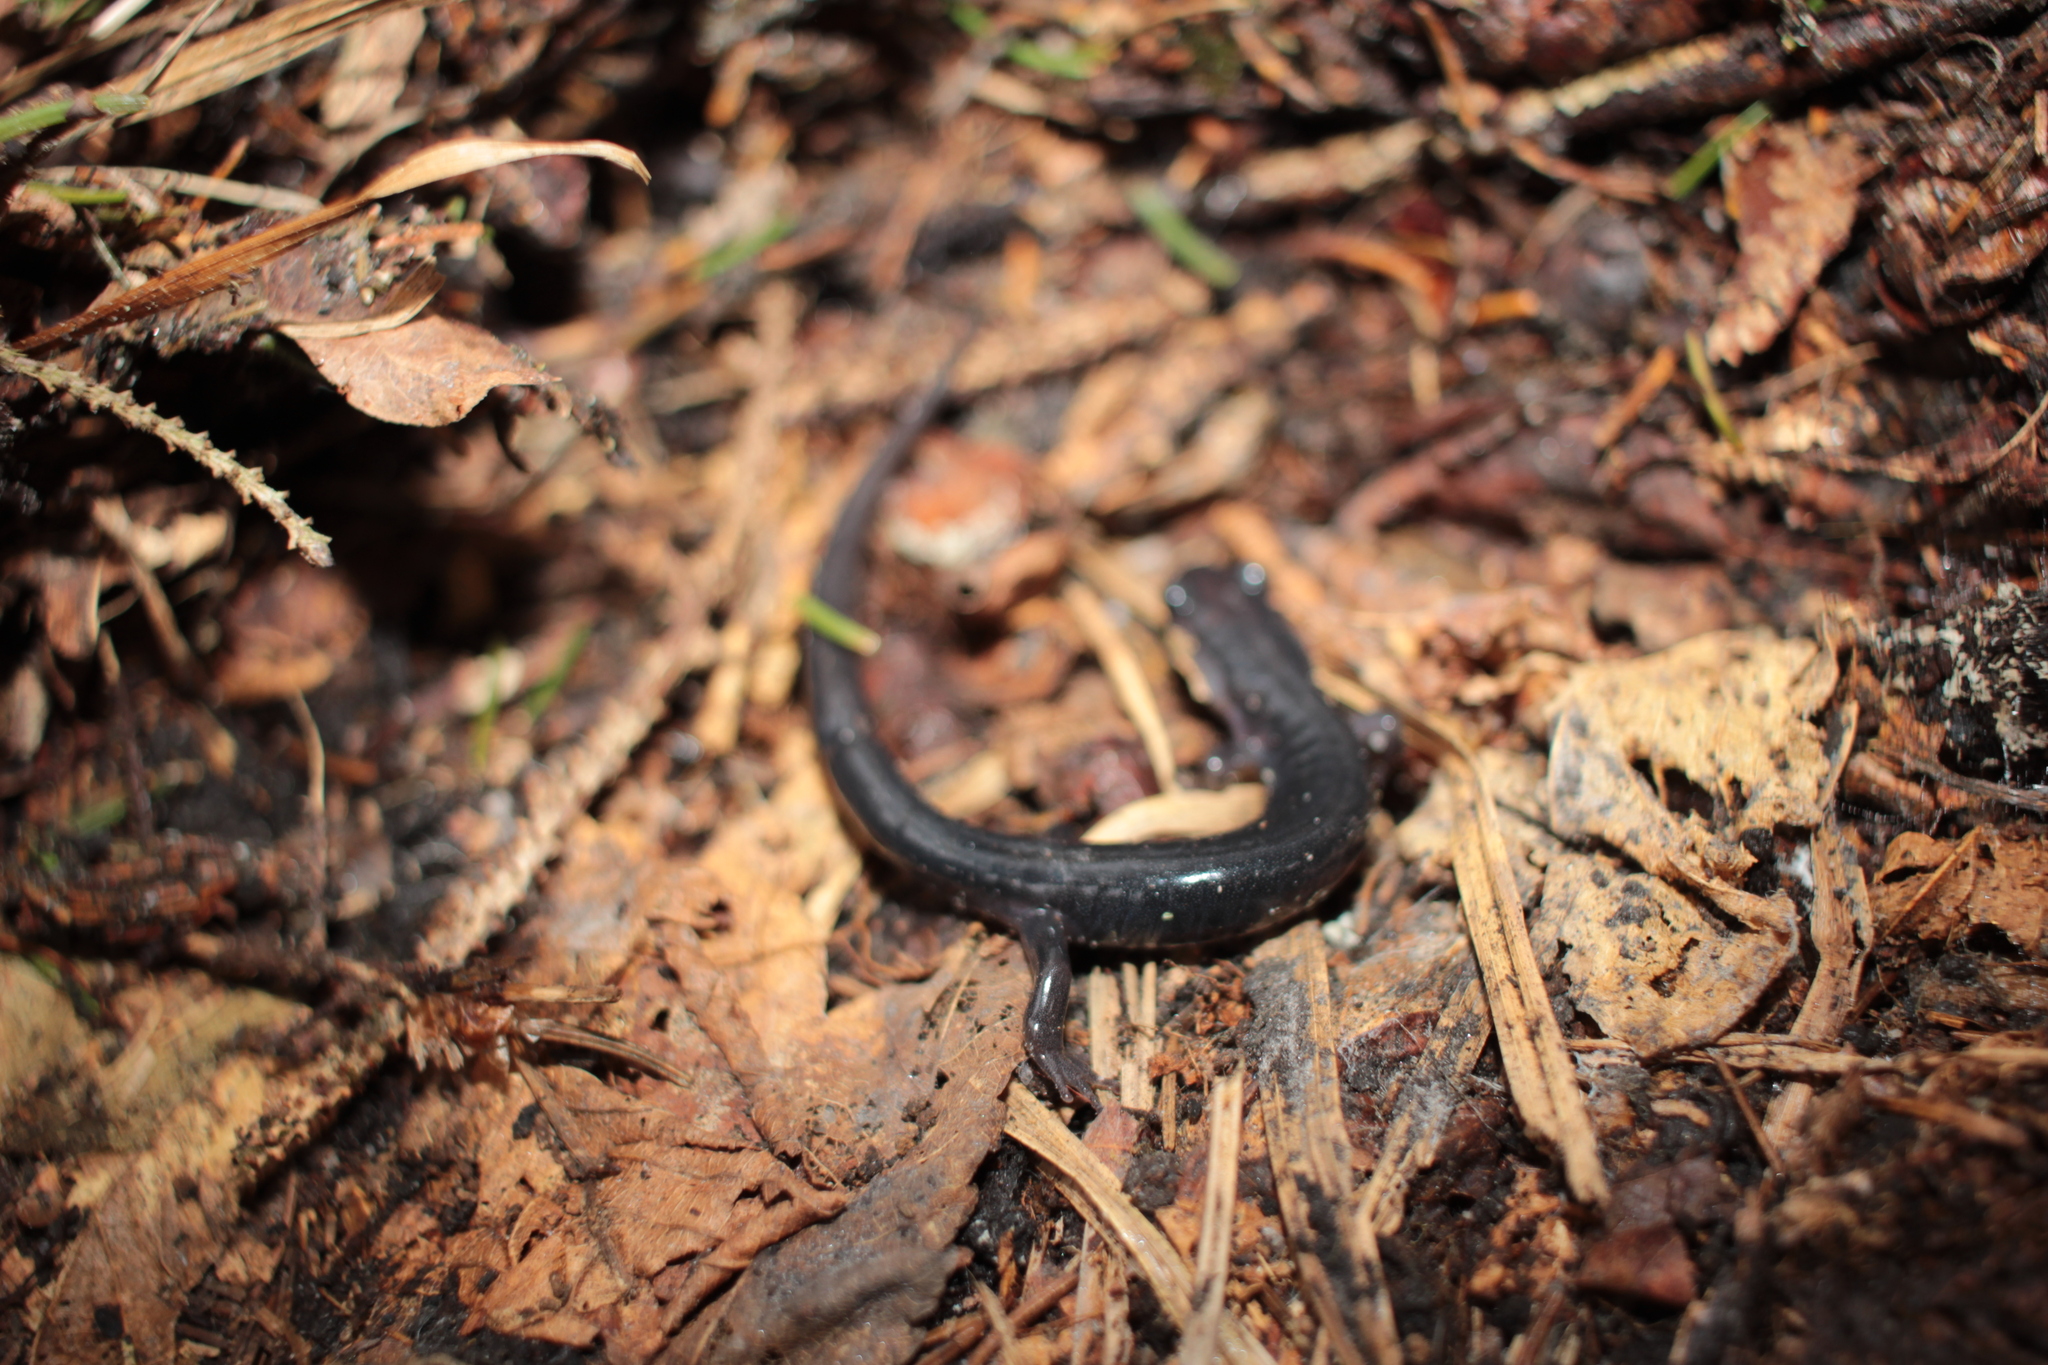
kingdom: Animalia
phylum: Chordata
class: Amphibia
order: Caudata
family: Plethodontidae
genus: Plethodon
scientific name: Plethodon montanus
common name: Northern gray-cheeked salamander
